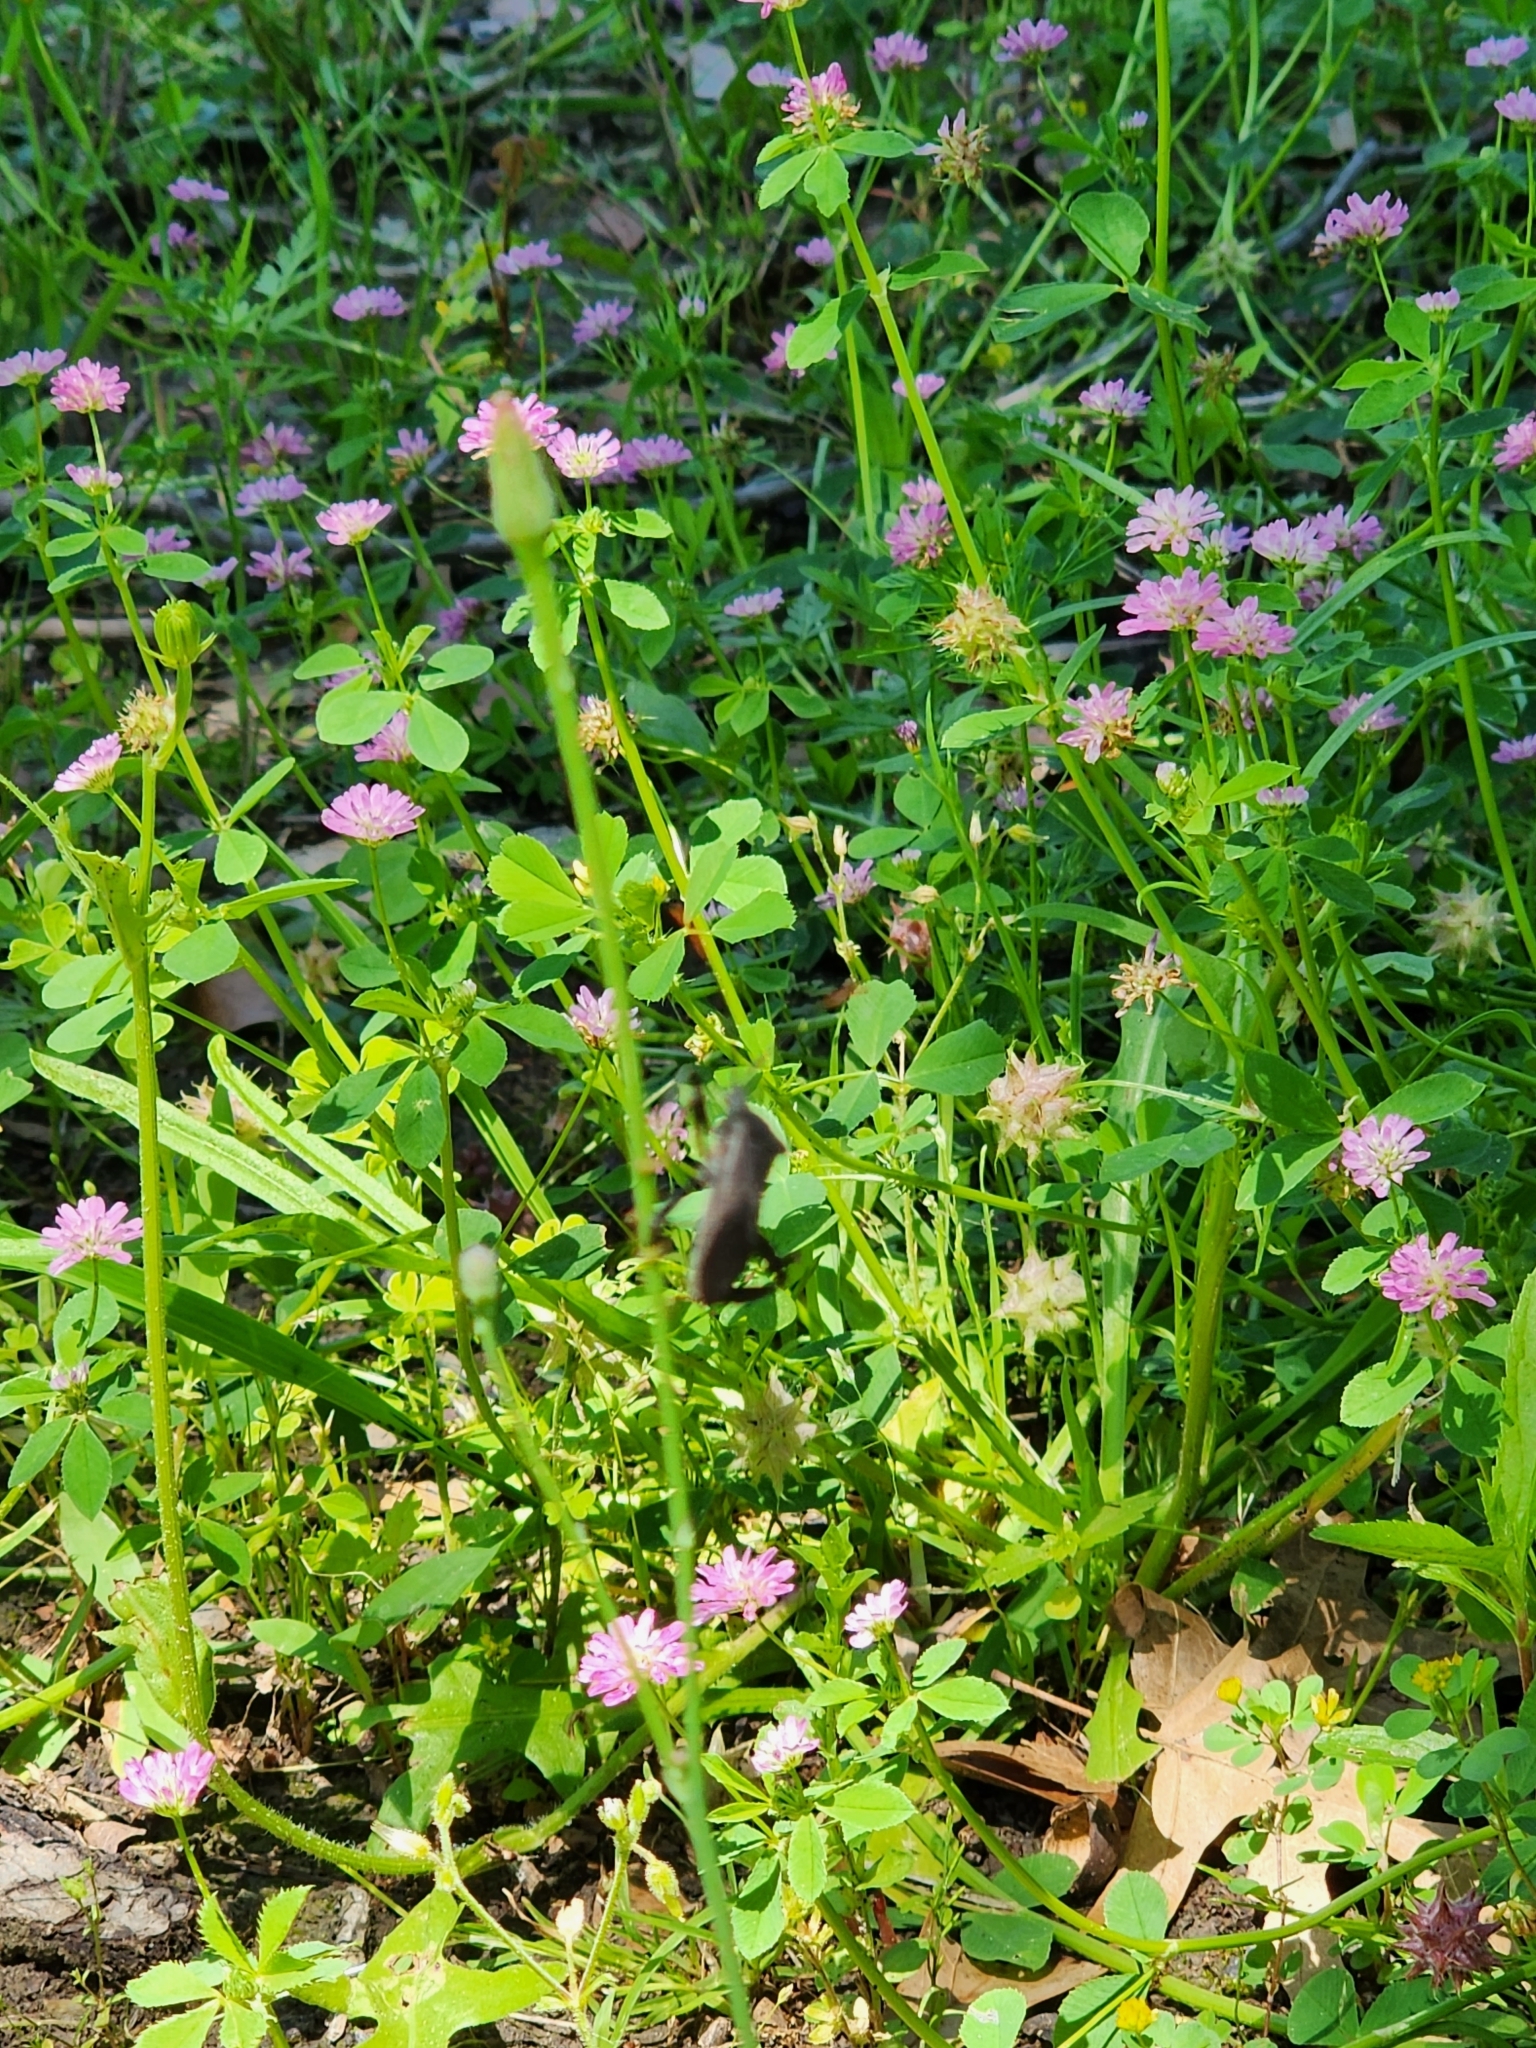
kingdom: Plantae
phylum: Tracheophyta
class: Magnoliopsida
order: Fabales
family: Fabaceae
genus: Trifolium
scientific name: Trifolium resupinatum
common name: Reversed clover
